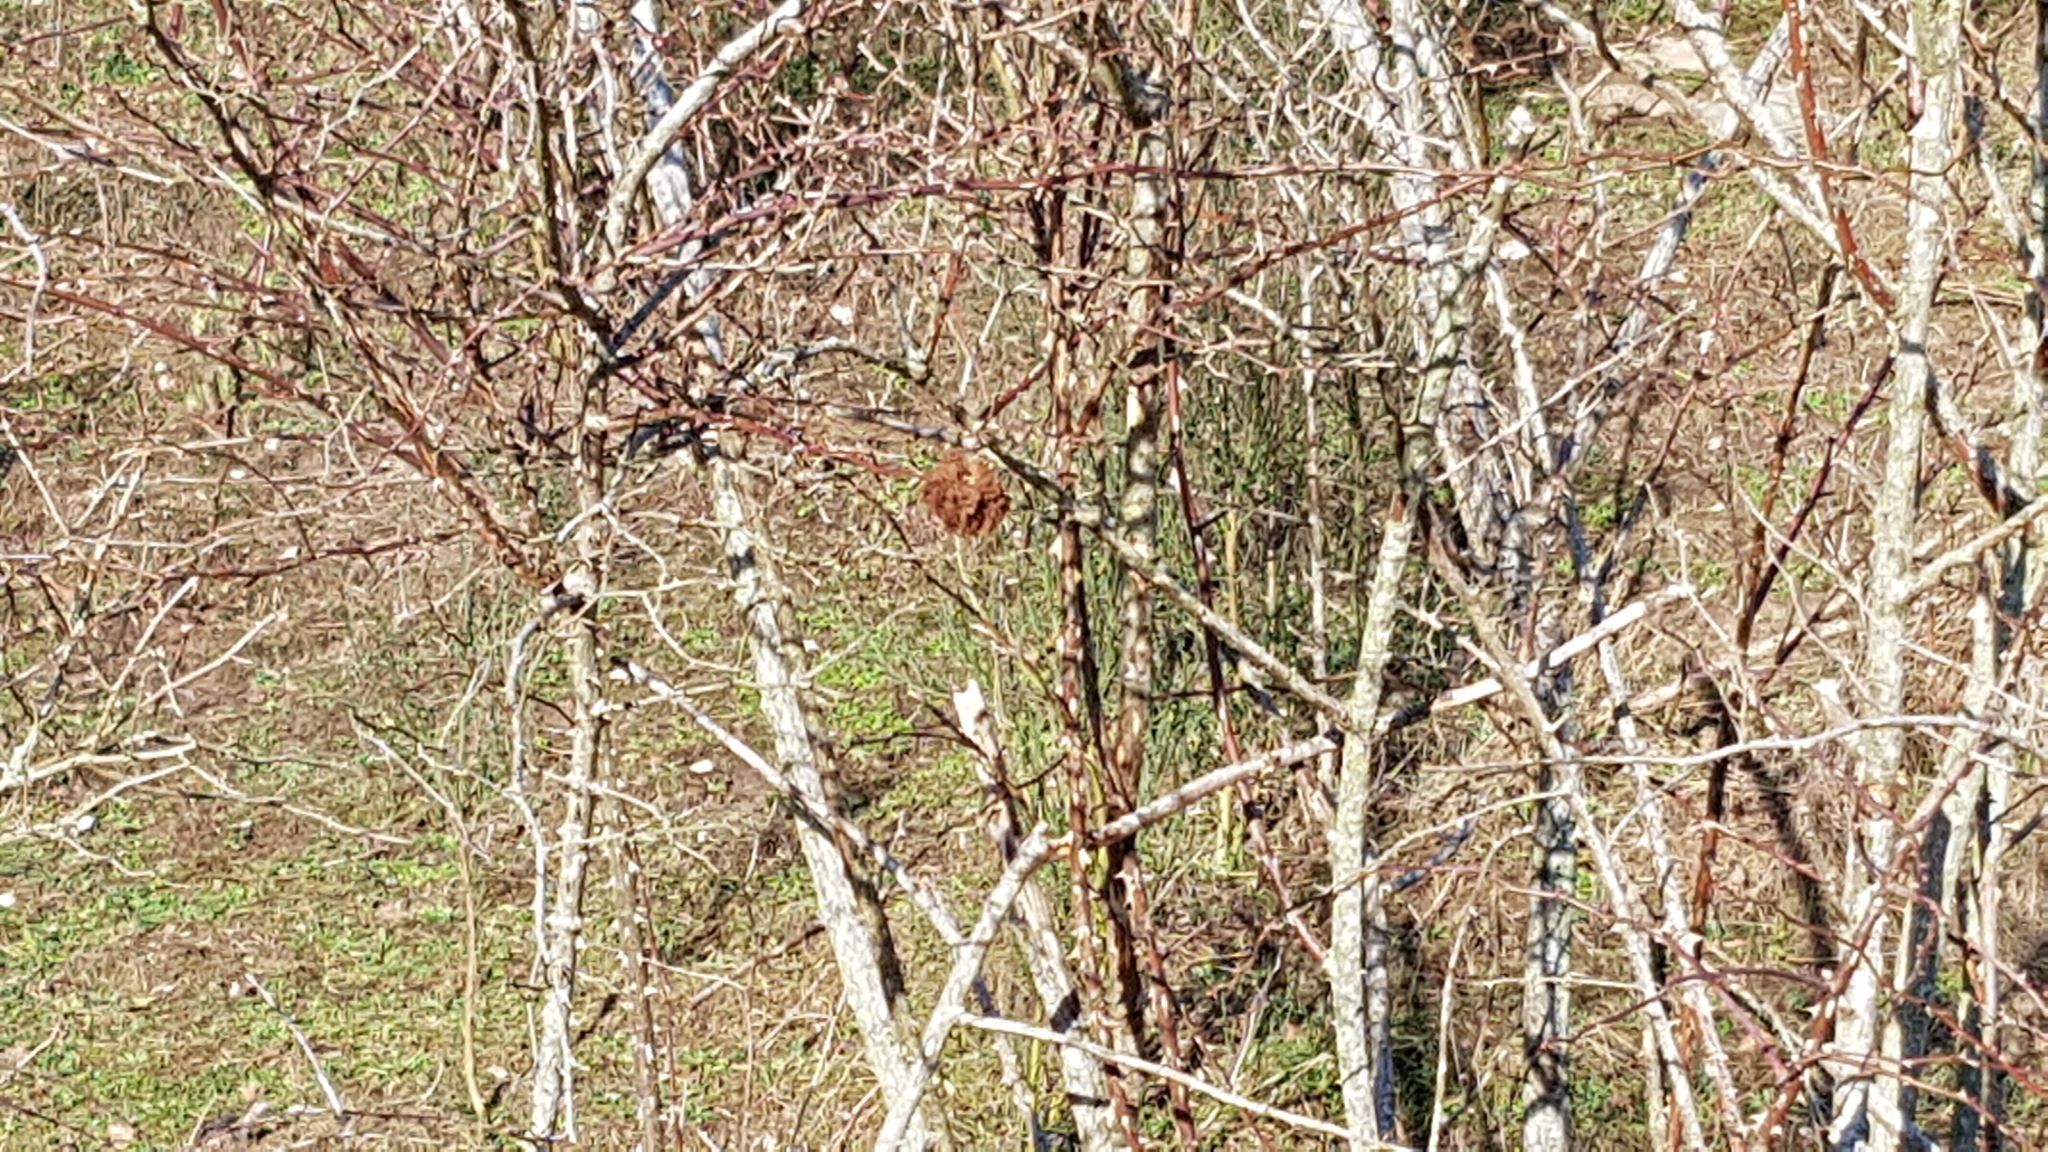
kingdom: Animalia
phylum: Arthropoda
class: Insecta
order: Hymenoptera
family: Cynipidae
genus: Diplolepis
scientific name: Diplolepis rosae
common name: Bedeguar gall
